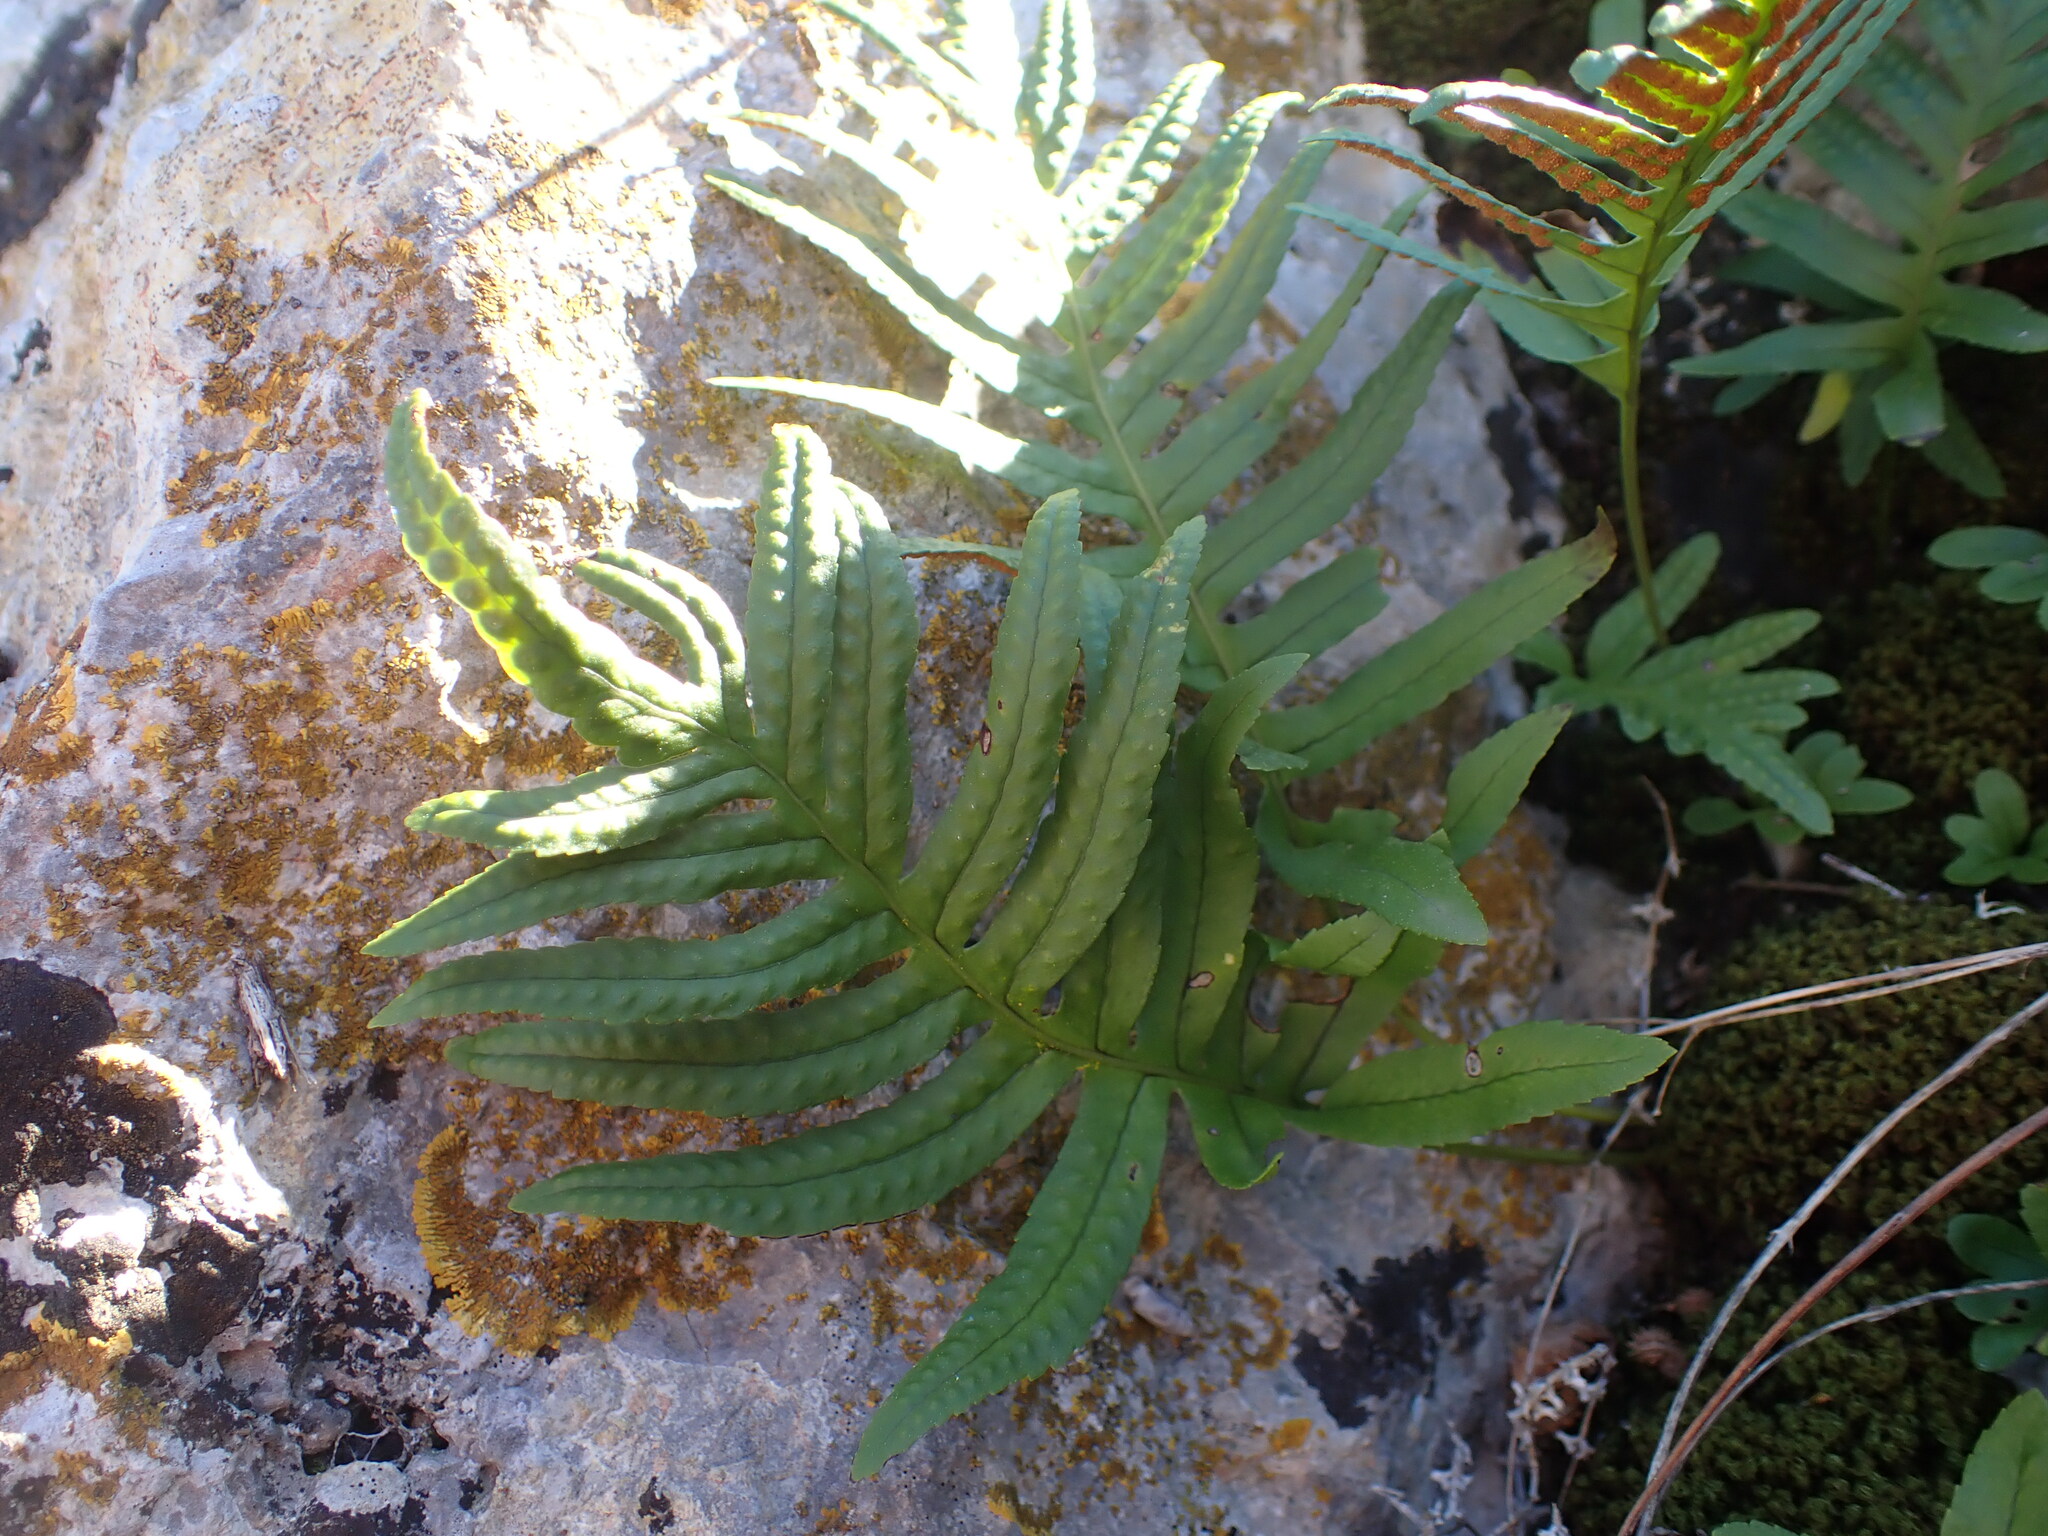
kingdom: Plantae
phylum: Tracheophyta
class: Polypodiopsida
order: Polypodiales
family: Polypodiaceae
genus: Polypodium
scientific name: Polypodium cambricum
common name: Southern polypody
